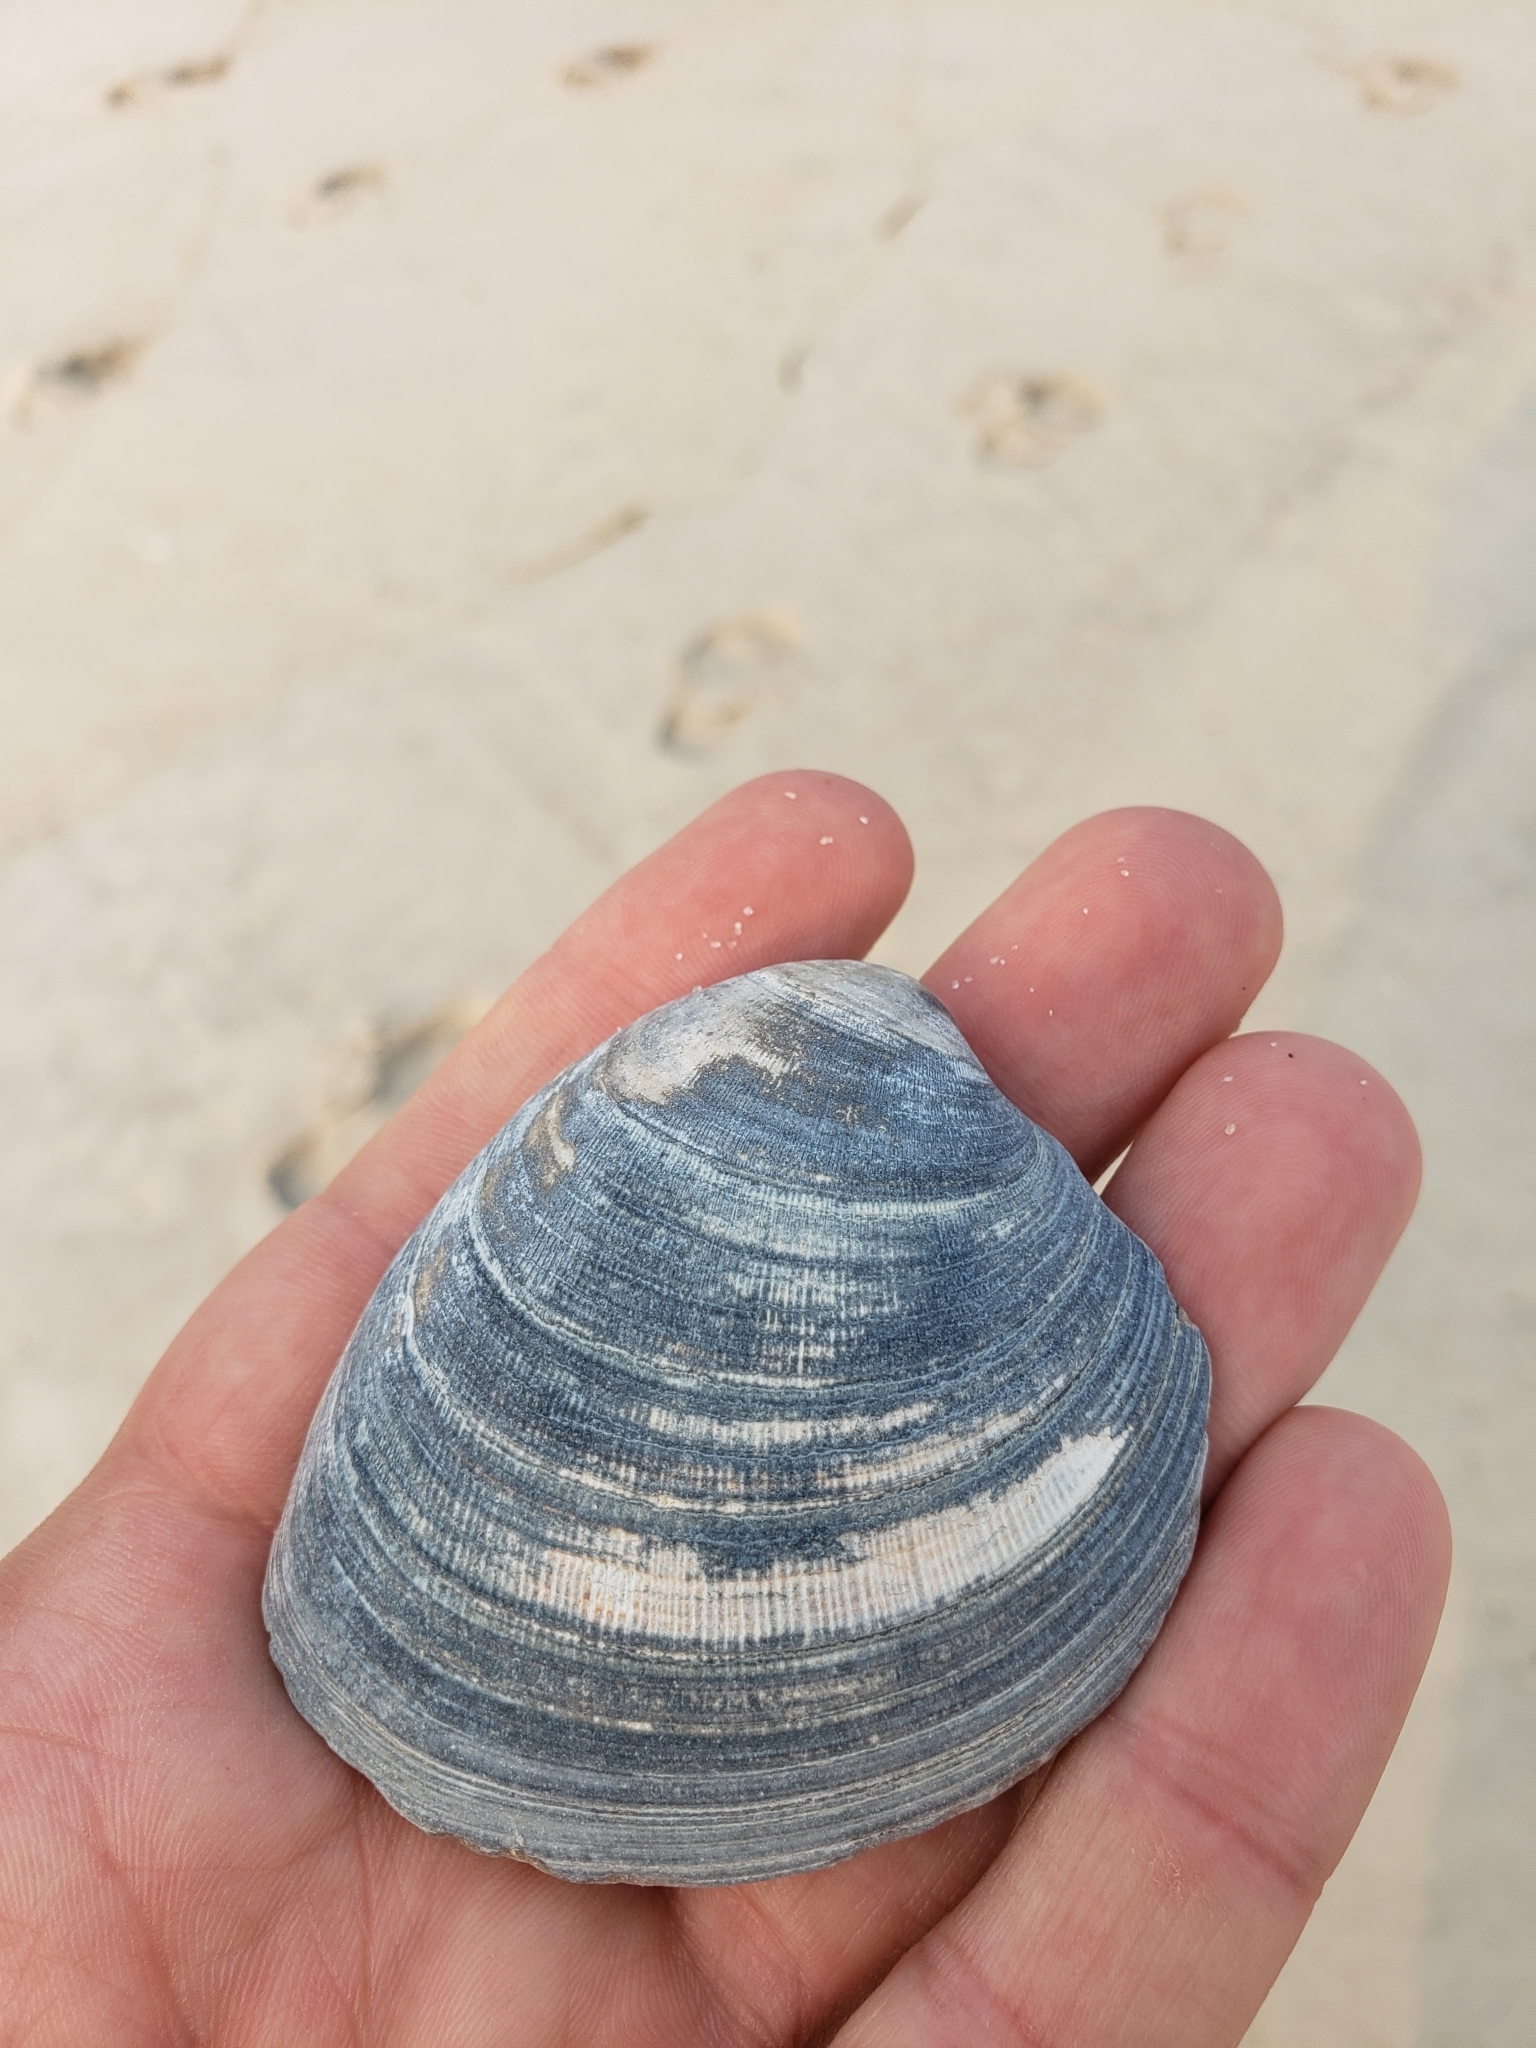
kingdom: Animalia
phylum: Mollusca
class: Bivalvia
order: Venerida
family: Veneridae
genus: Mercenaria
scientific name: Mercenaria mercenaria
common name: American hard-shelled clam
